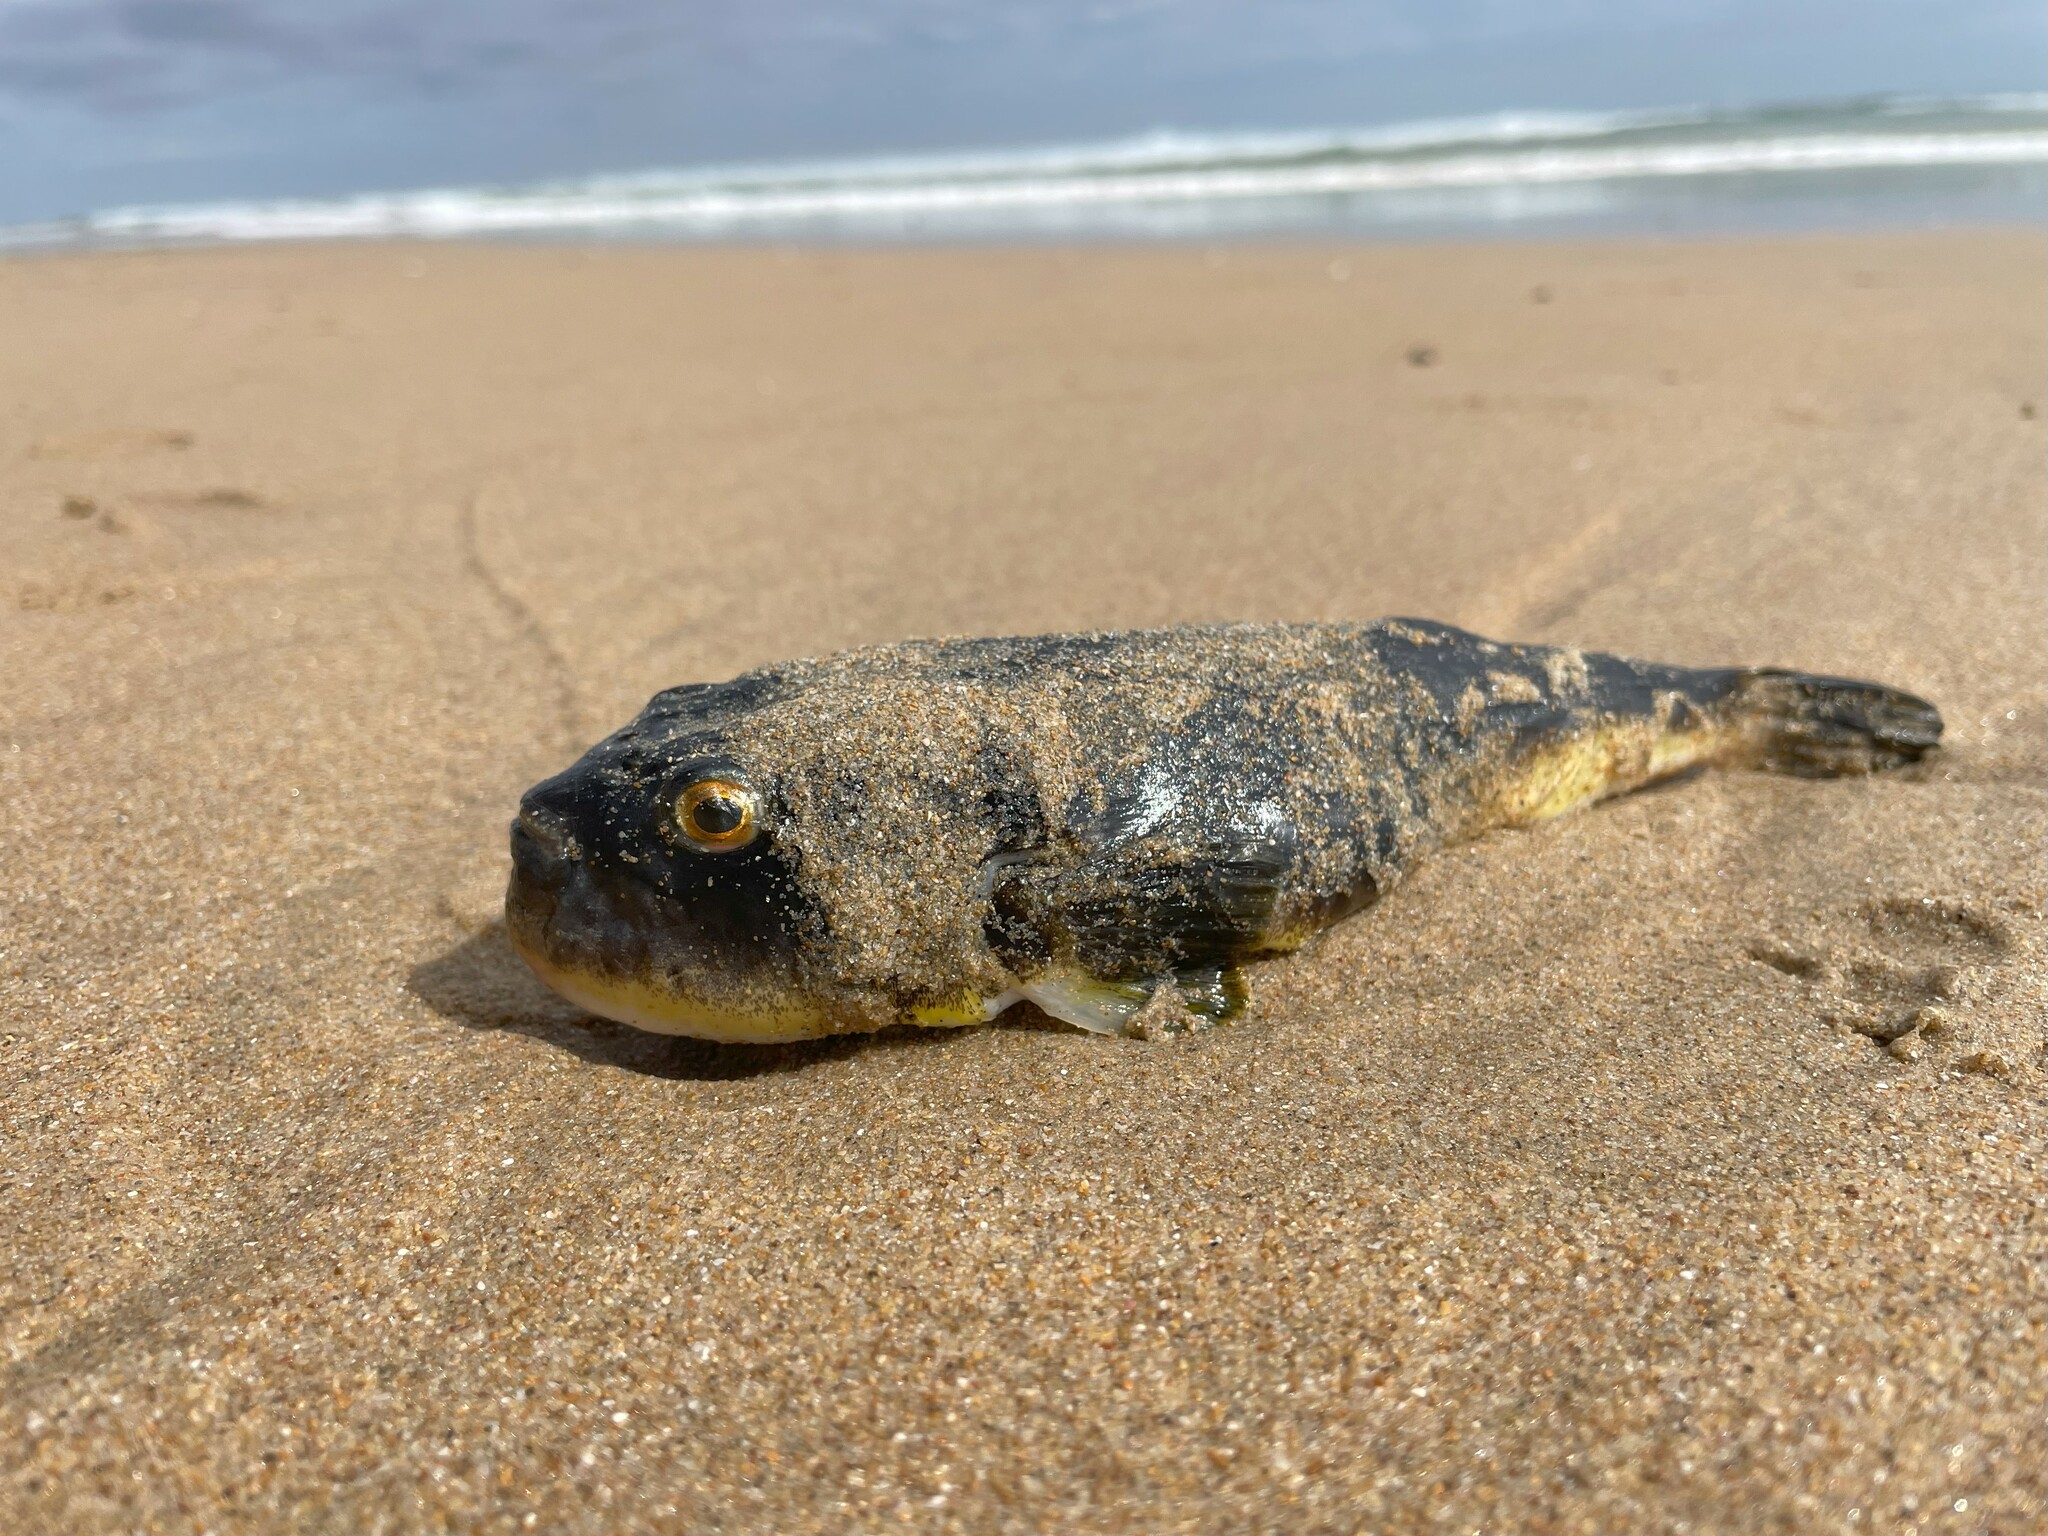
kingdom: Animalia
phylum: Chordata
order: Tetraodontiformes
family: Tetraodontidae
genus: Amblyrhynchote
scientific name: Amblyrhynchote honckenii
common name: Evileye blaasop
